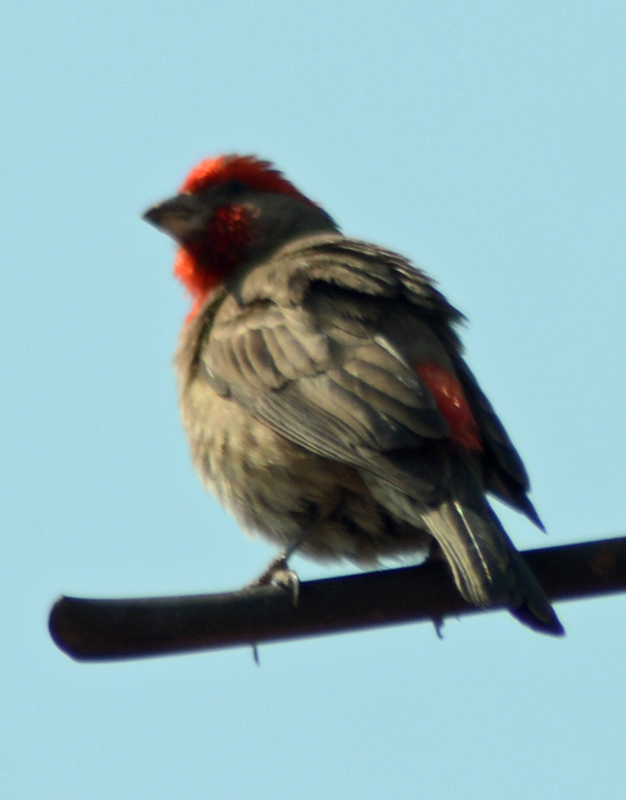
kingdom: Animalia
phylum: Chordata
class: Aves
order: Passeriformes
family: Fringillidae
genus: Haemorhous
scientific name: Haemorhous mexicanus
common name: House finch
